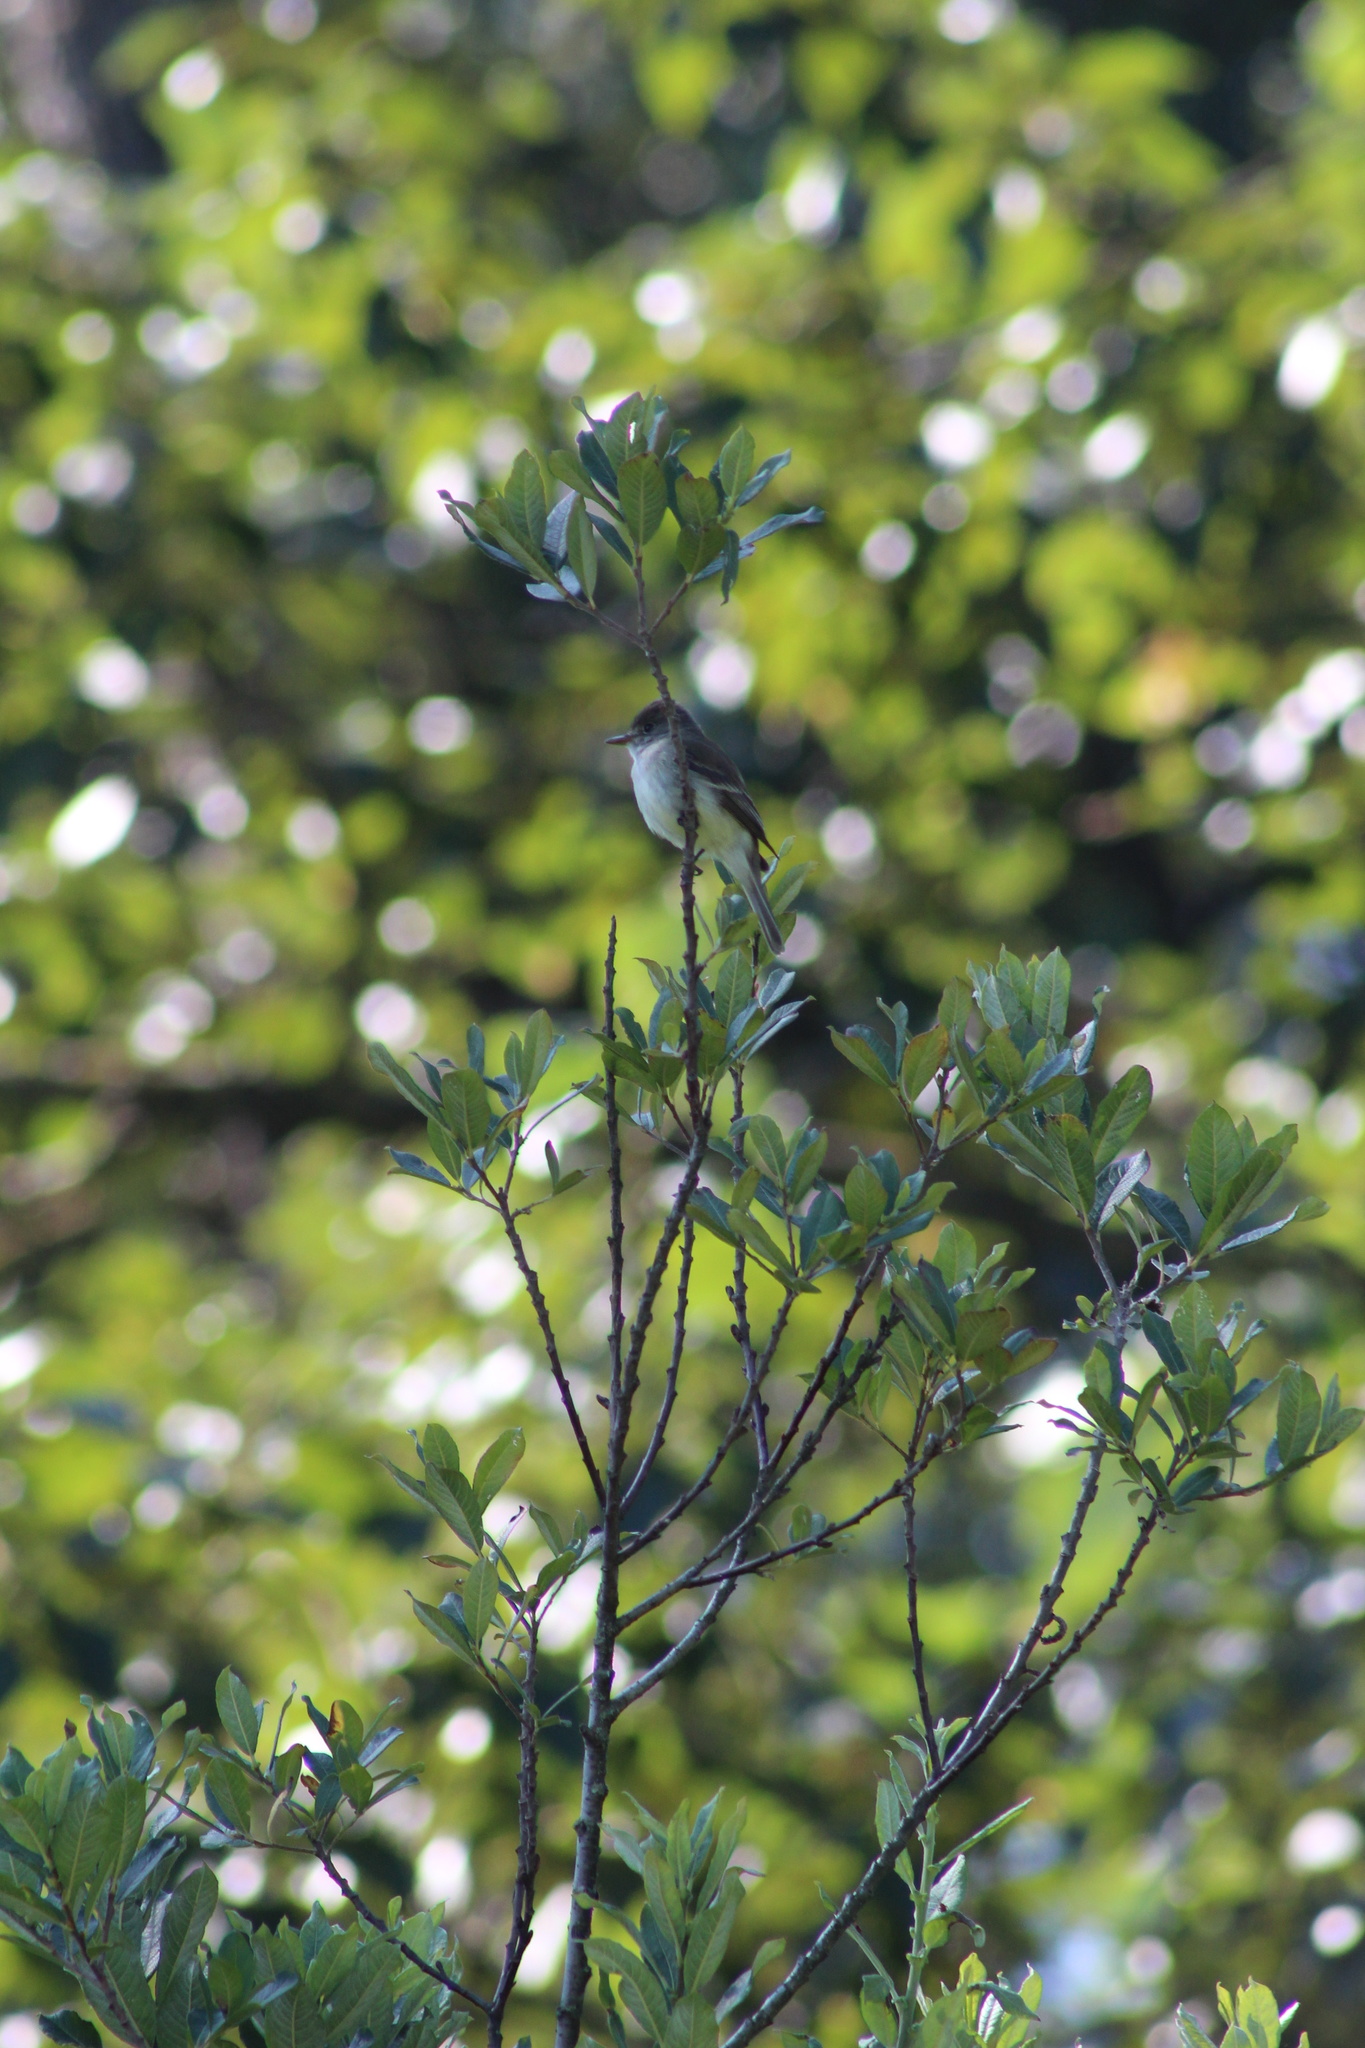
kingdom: Animalia
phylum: Chordata
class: Aves
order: Passeriformes
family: Tyrannidae
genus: Empidonax
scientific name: Empidonax traillii
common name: Willow flycatcher
